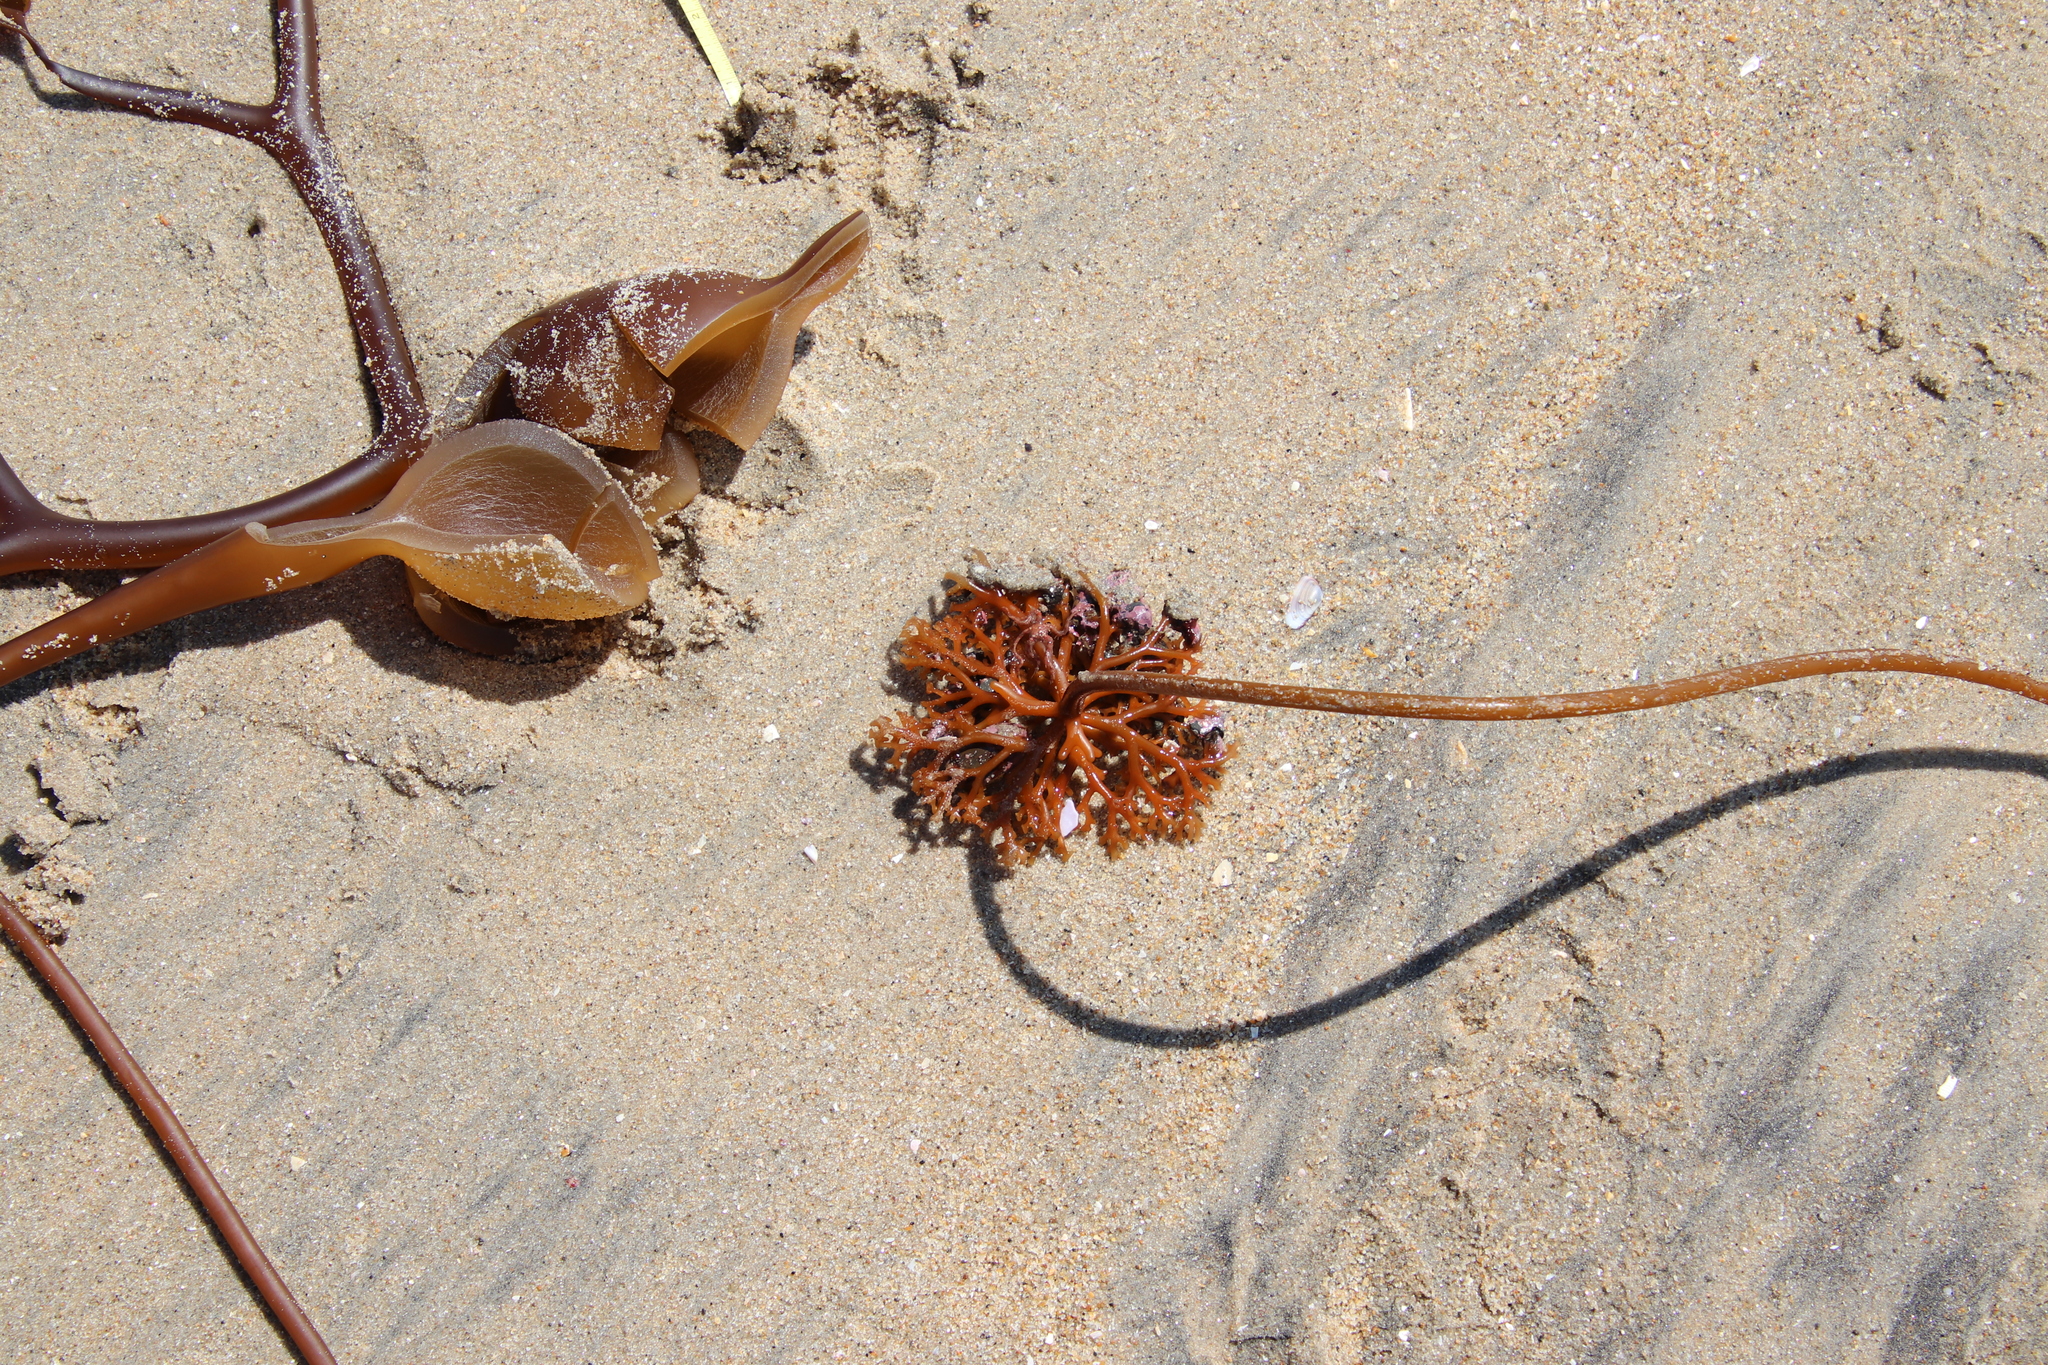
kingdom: Chromista
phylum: Ochrophyta
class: Phaeophyceae
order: Laminariales
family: Laminariaceae
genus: Pelagophycus
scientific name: Pelagophycus porra
